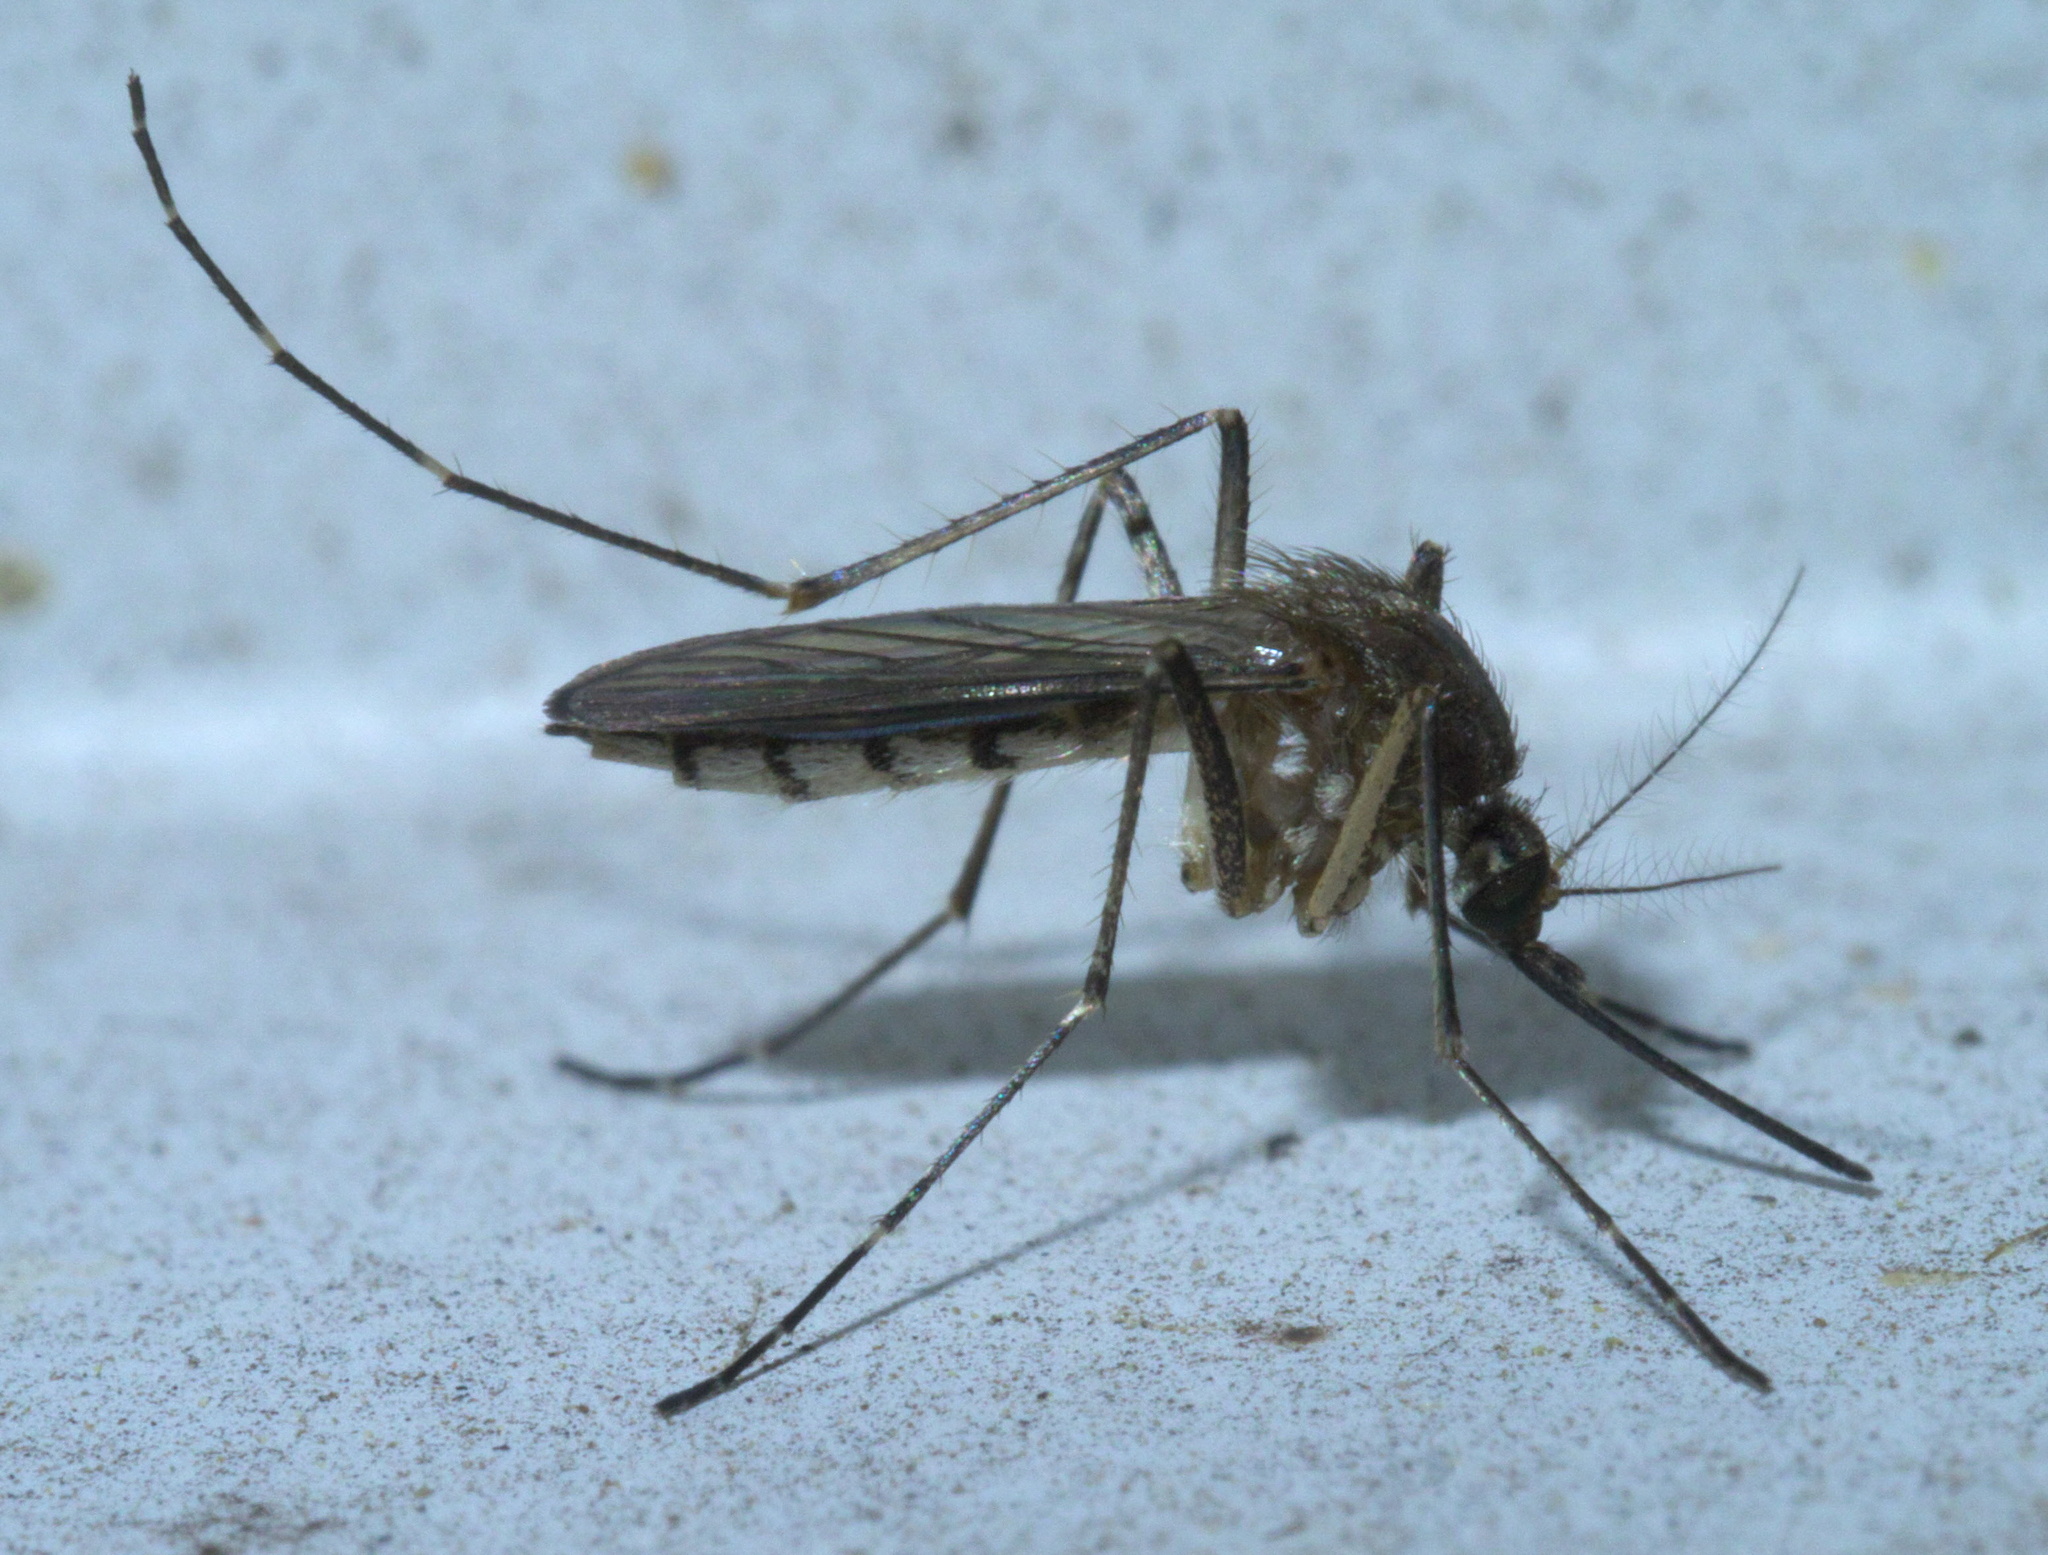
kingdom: Animalia
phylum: Arthropoda
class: Insecta
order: Diptera
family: Culicidae
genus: Aedes
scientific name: Aedes vexans
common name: Inland floodwater mosquito
